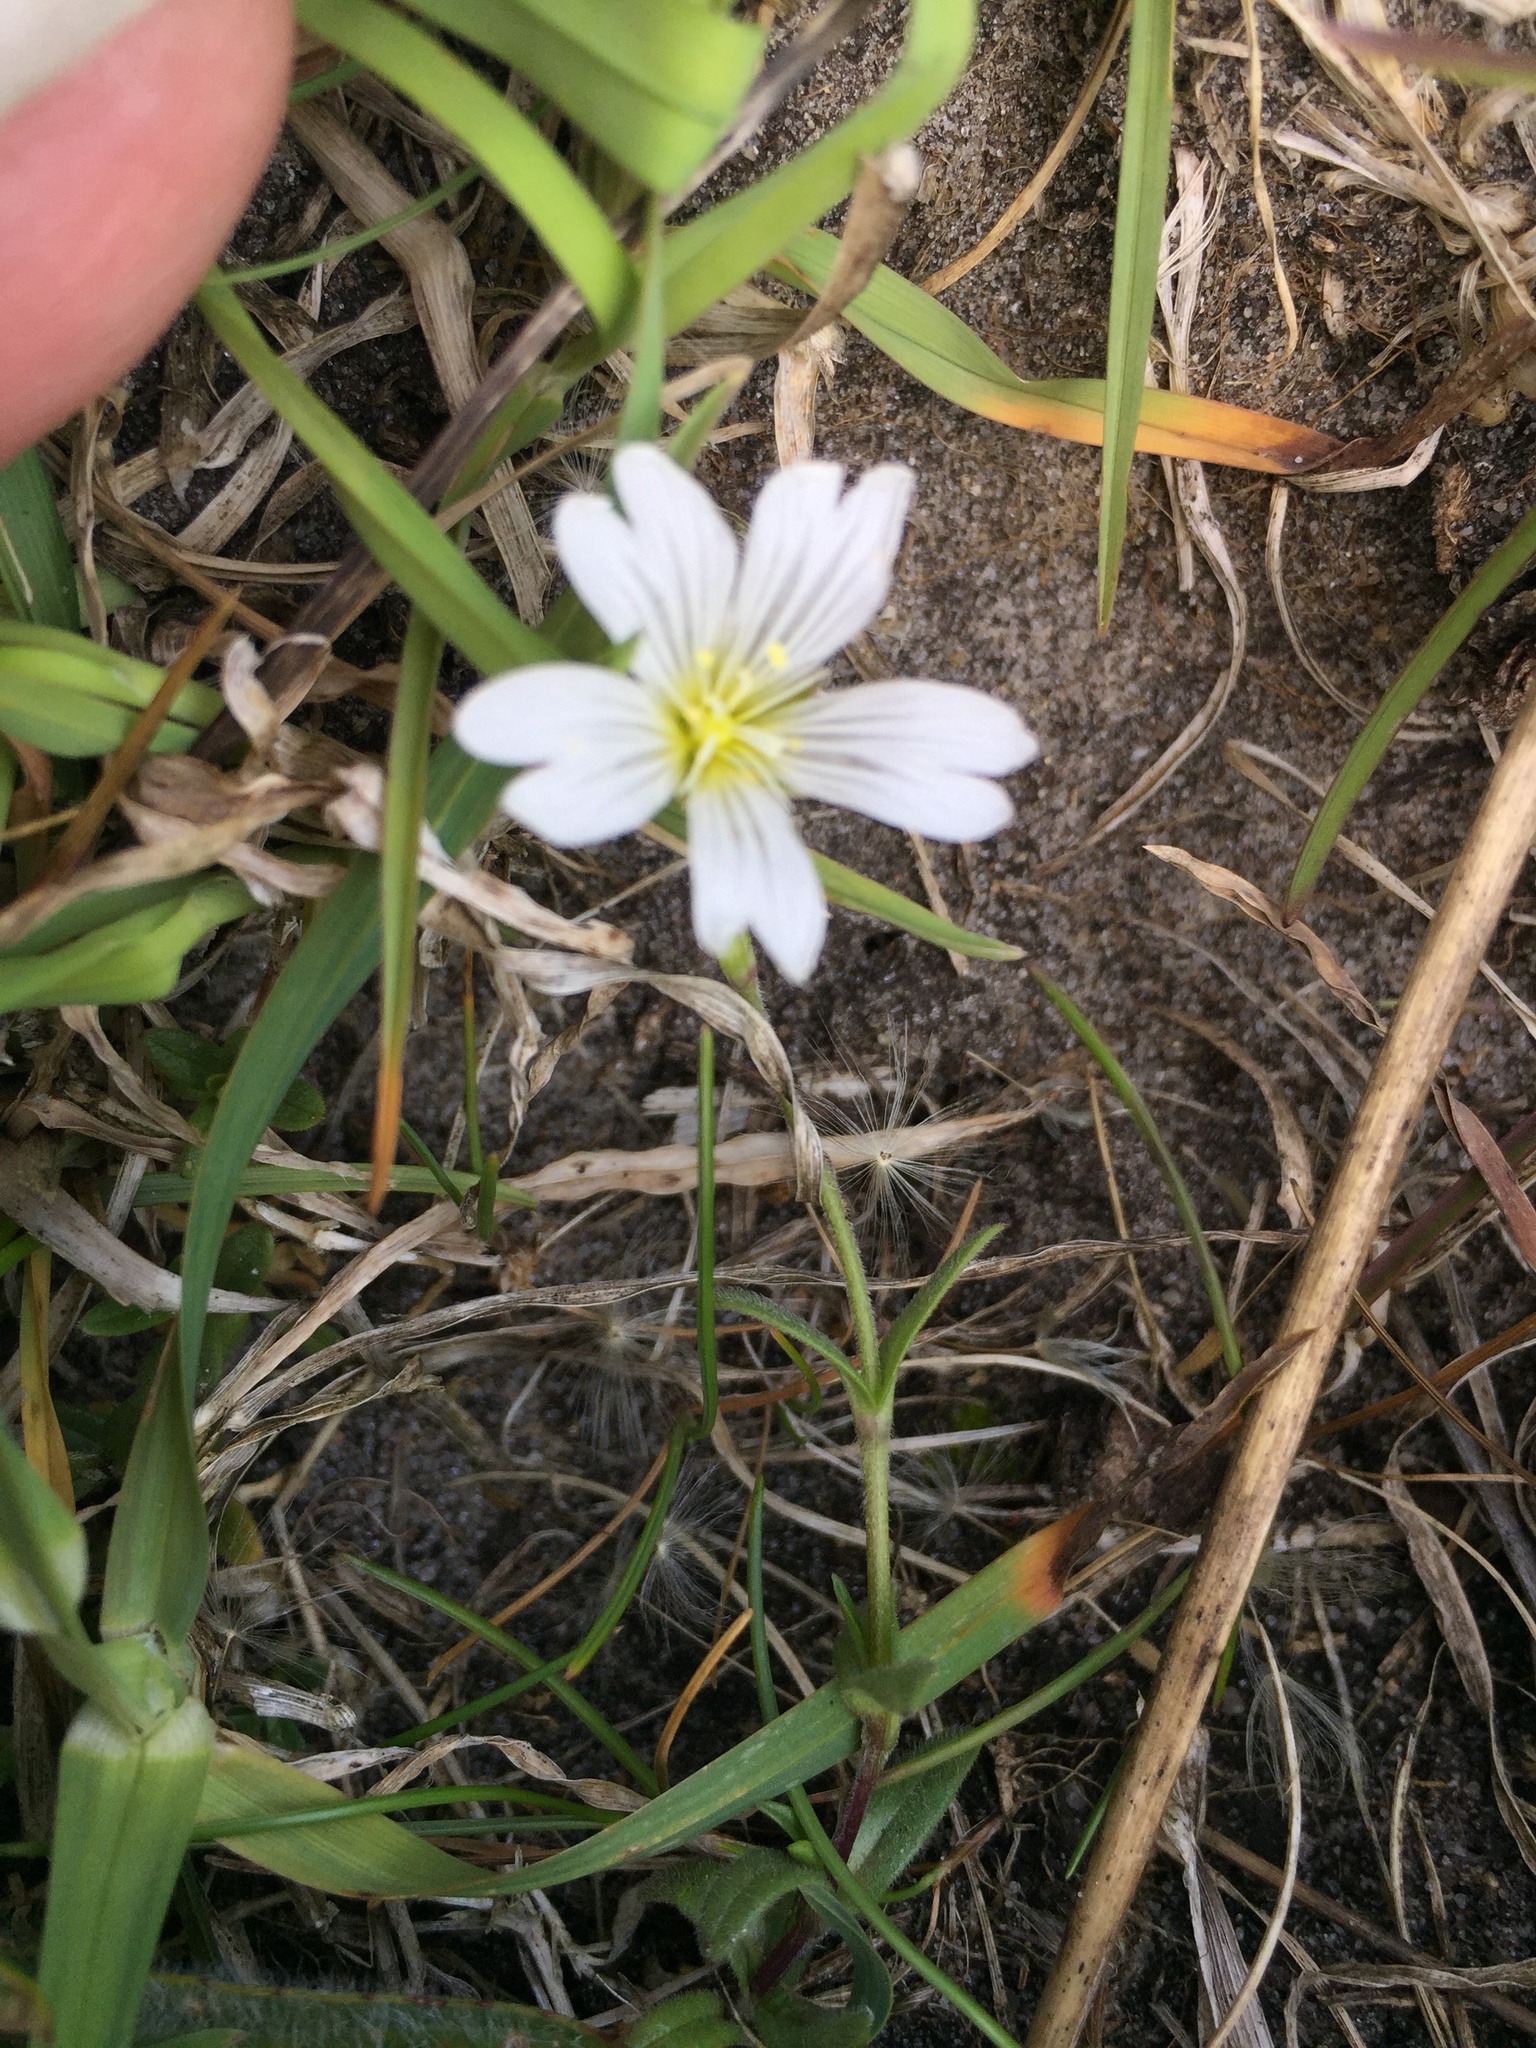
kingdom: Plantae
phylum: Tracheophyta
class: Magnoliopsida
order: Caryophyllales
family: Caryophyllaceae
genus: Cerastium
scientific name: Cerastium arvense
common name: Field mouse-ear
